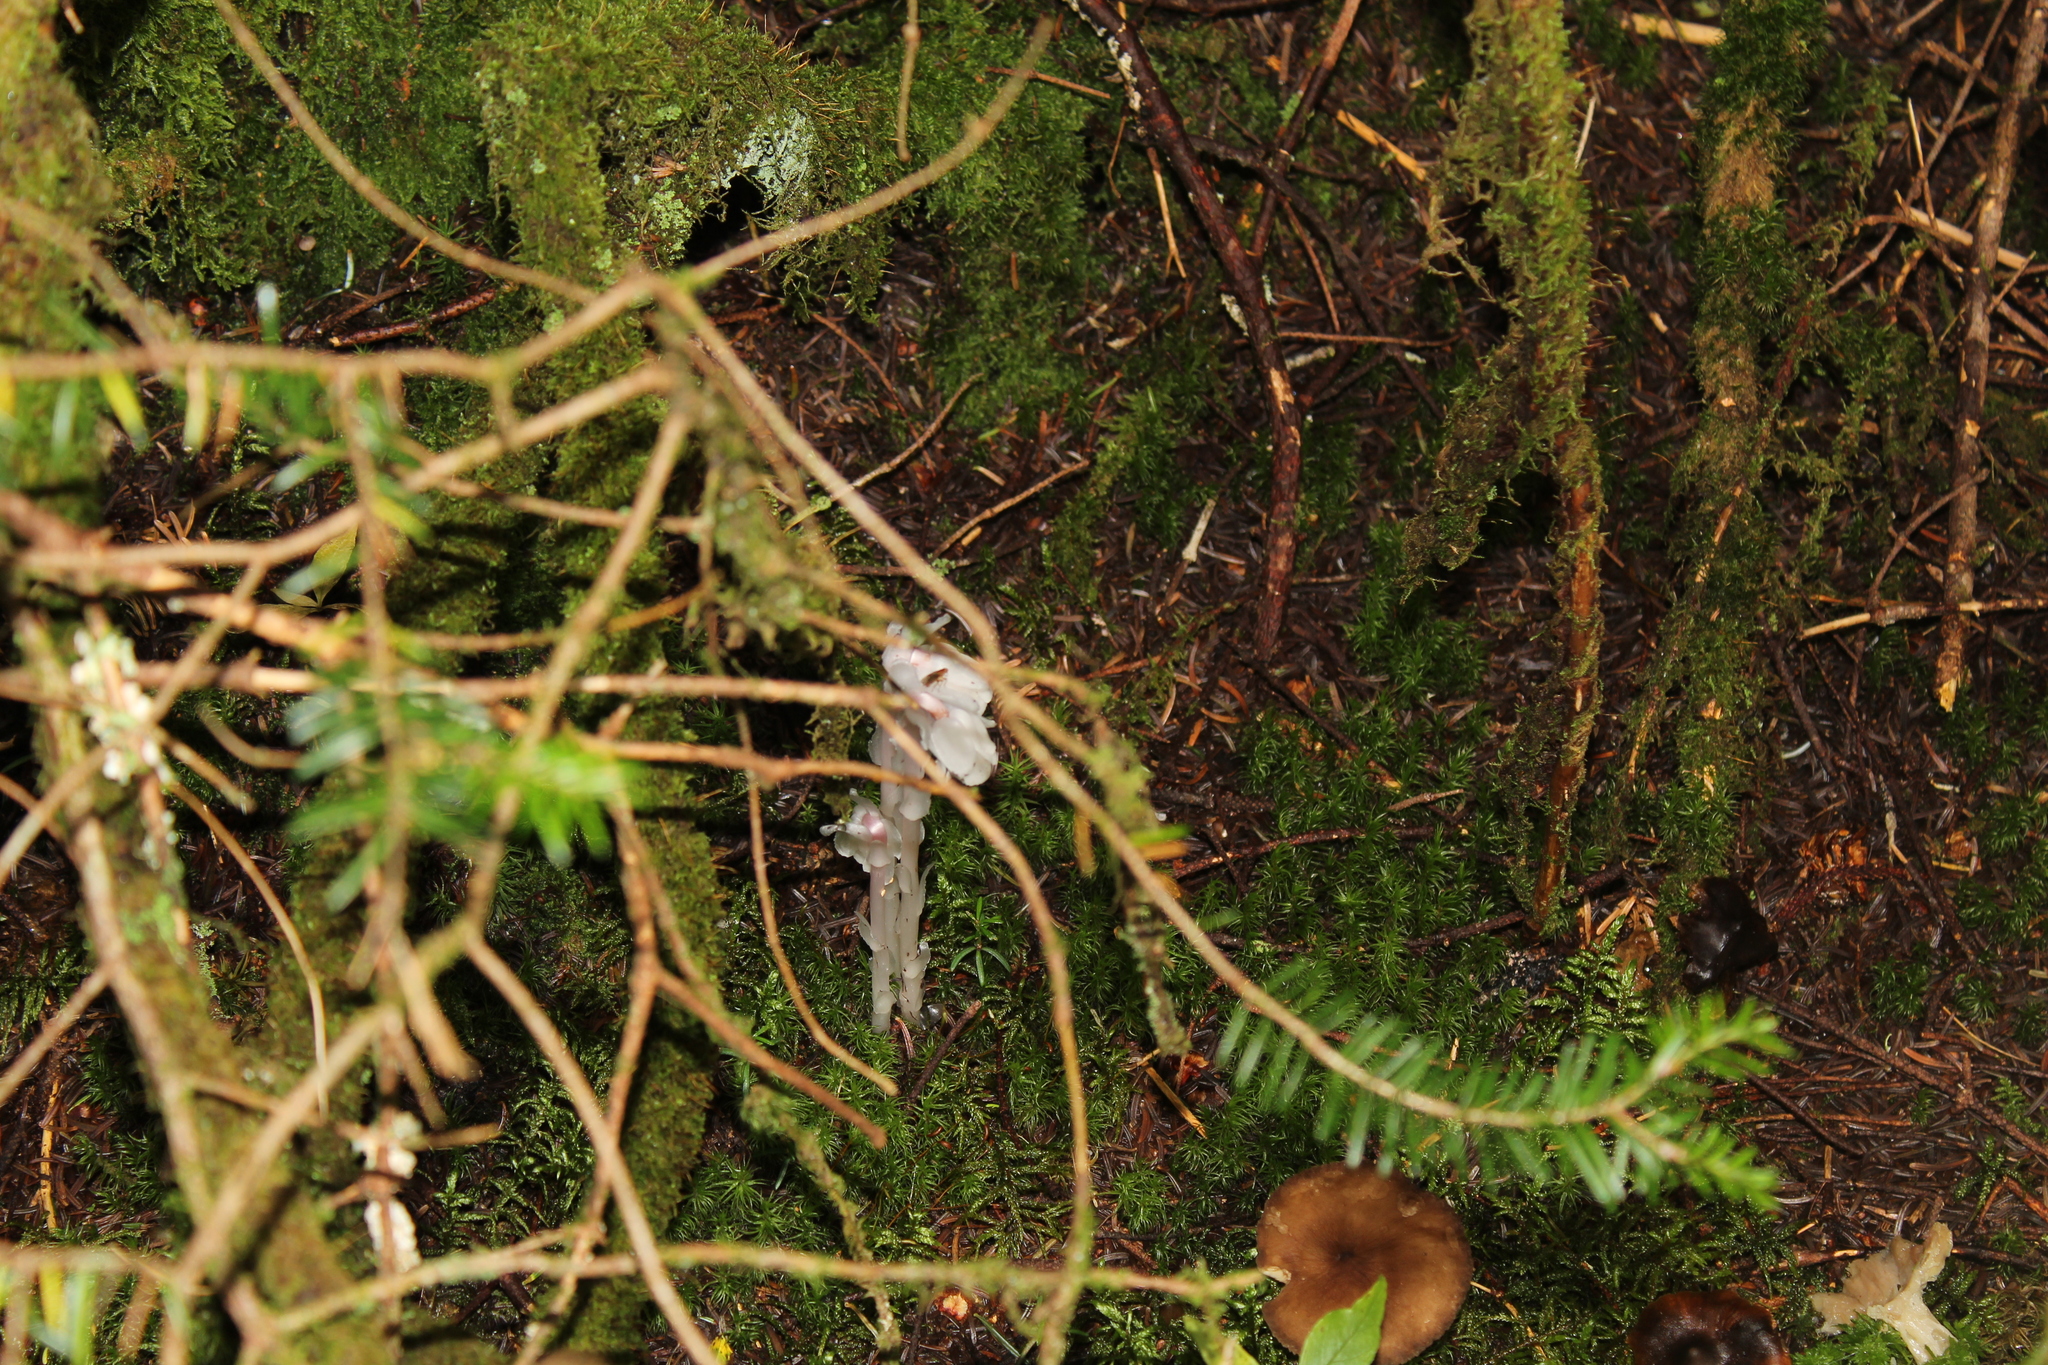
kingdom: Plantae
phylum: Tracheophyta
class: Magnoliopsida
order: Ericales
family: Ericaceae
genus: Monotropa
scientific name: Monotropa uniflora
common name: Convulsion root
